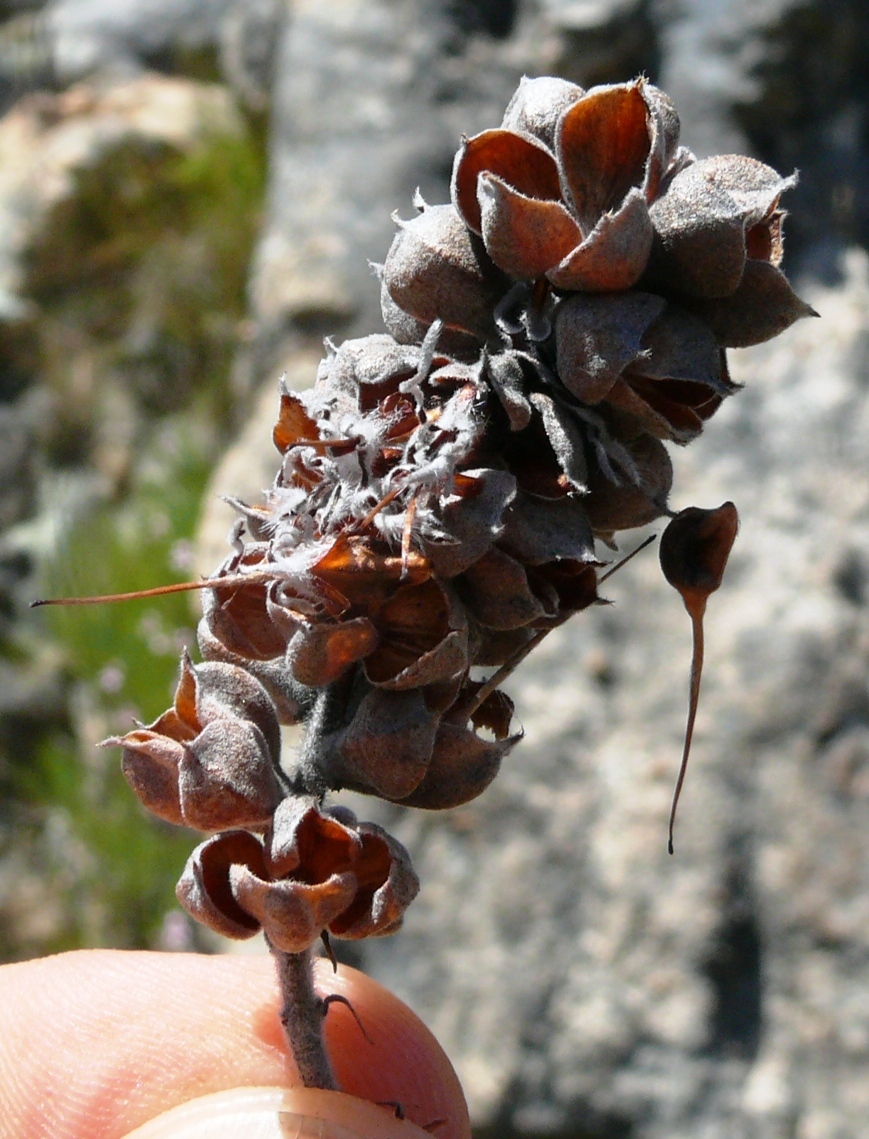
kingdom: Plantae
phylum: Tracheophyta
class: Magnoliopsida
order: Proteales
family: Proteaceae
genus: Paranomus
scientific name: Paranomus bracteolaris
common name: Bokkeveld tree sceptre
